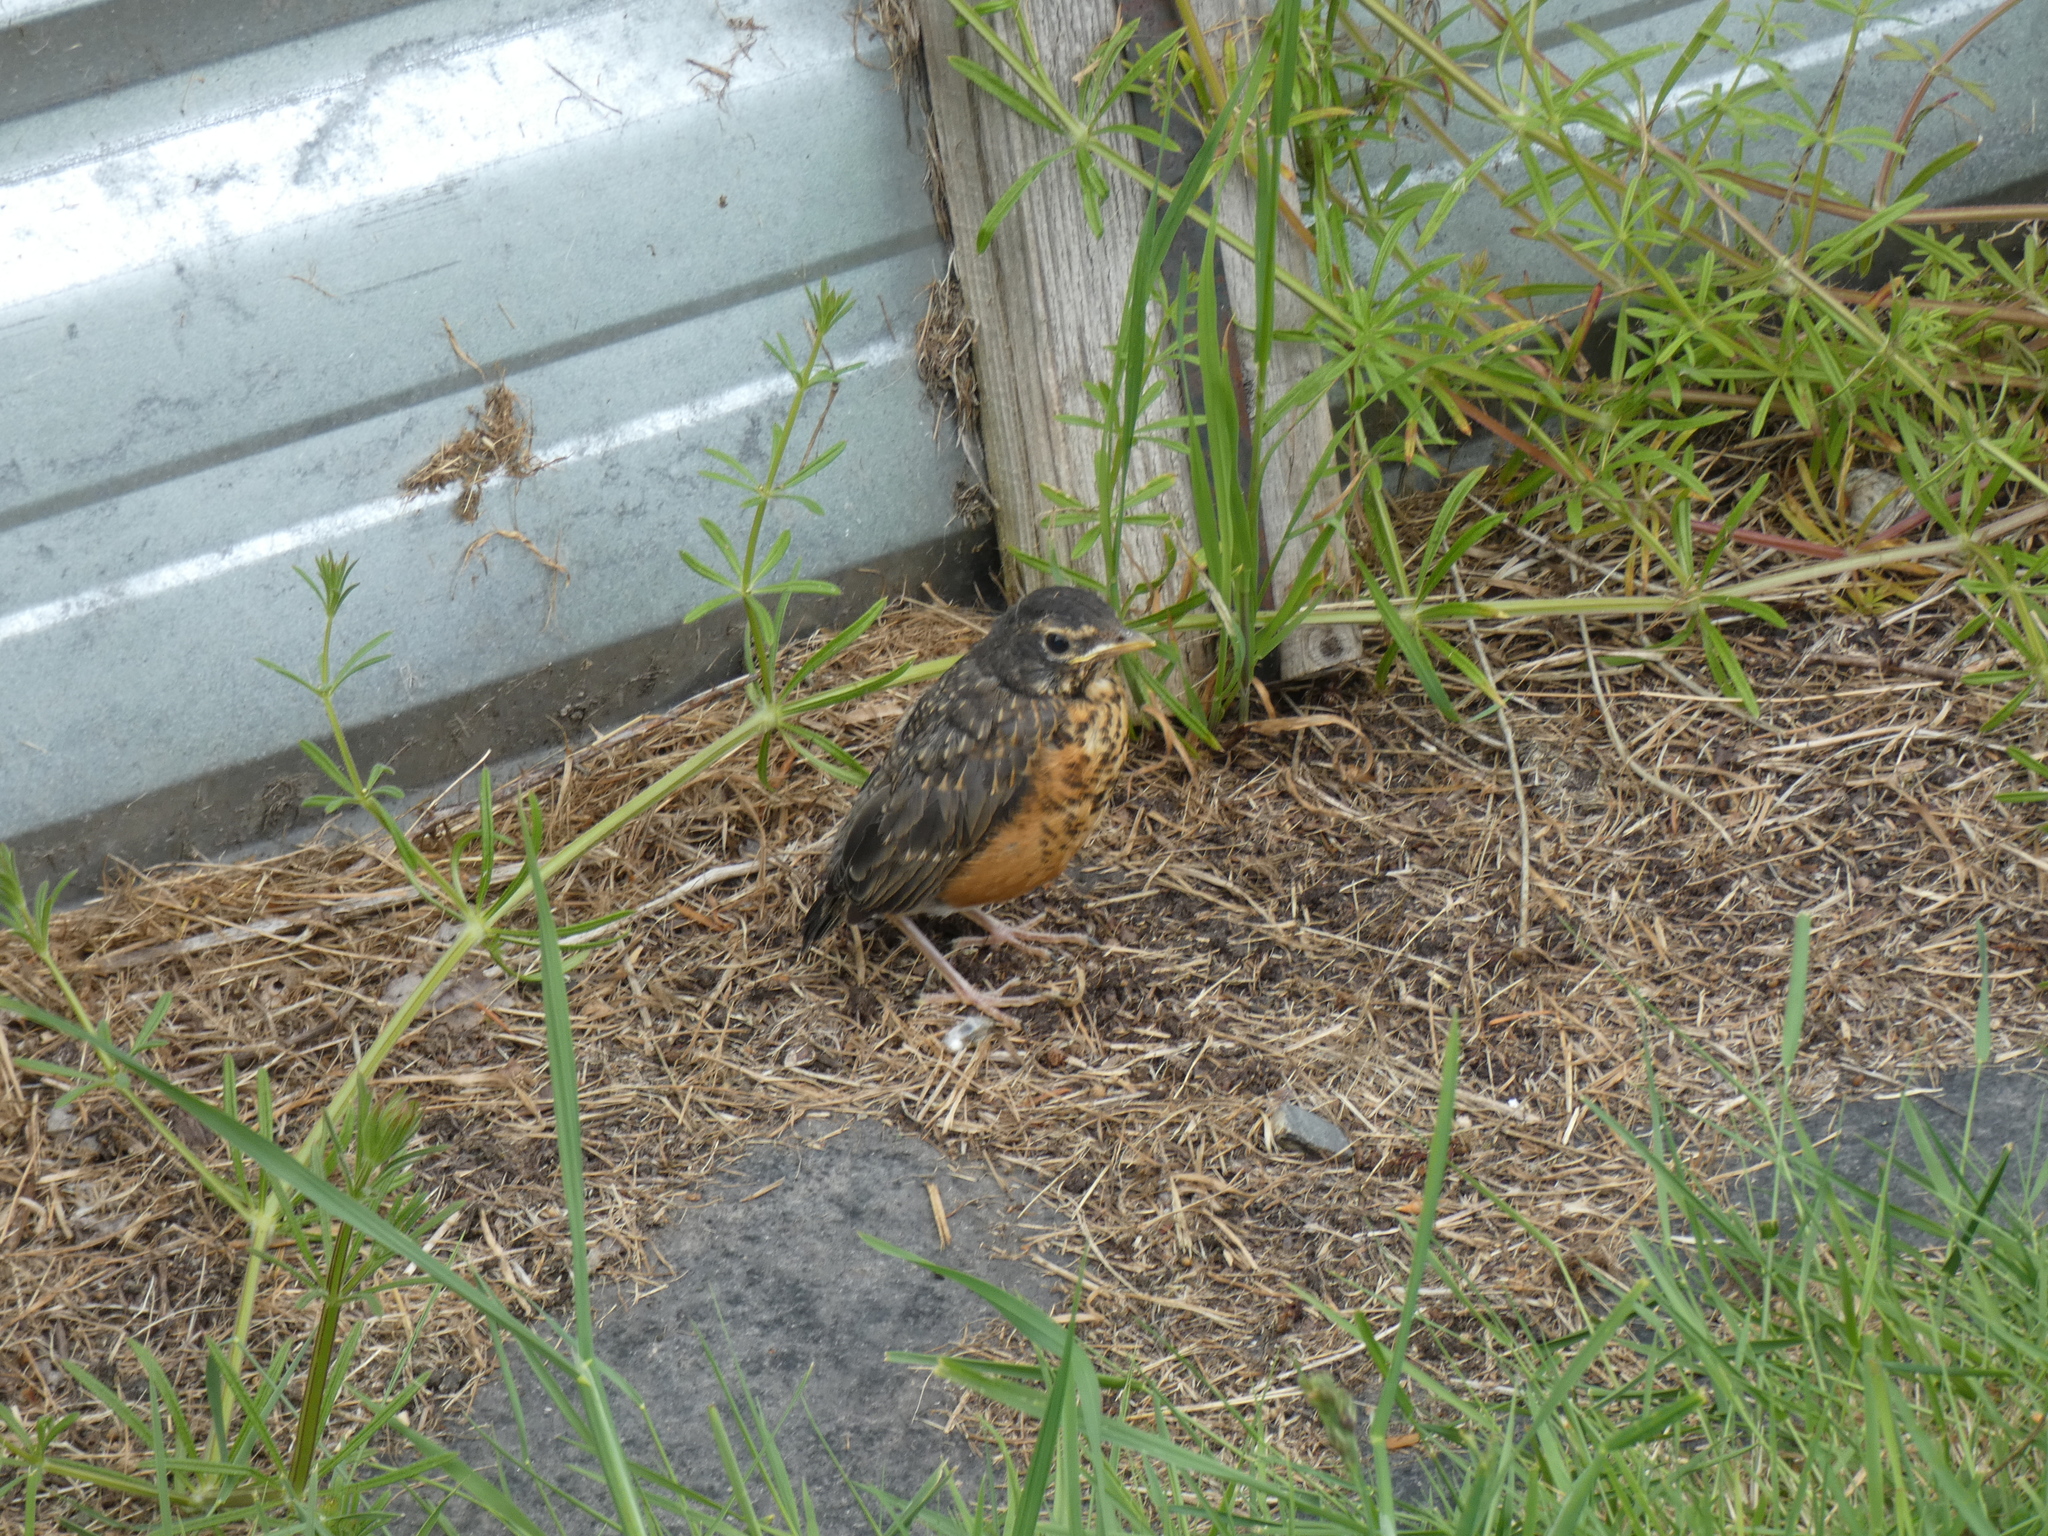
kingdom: Animalia
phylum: Chordata
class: Aves
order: Passeriformes
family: Turdidae
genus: Turdus
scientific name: Turdus migratorius
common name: American robin
